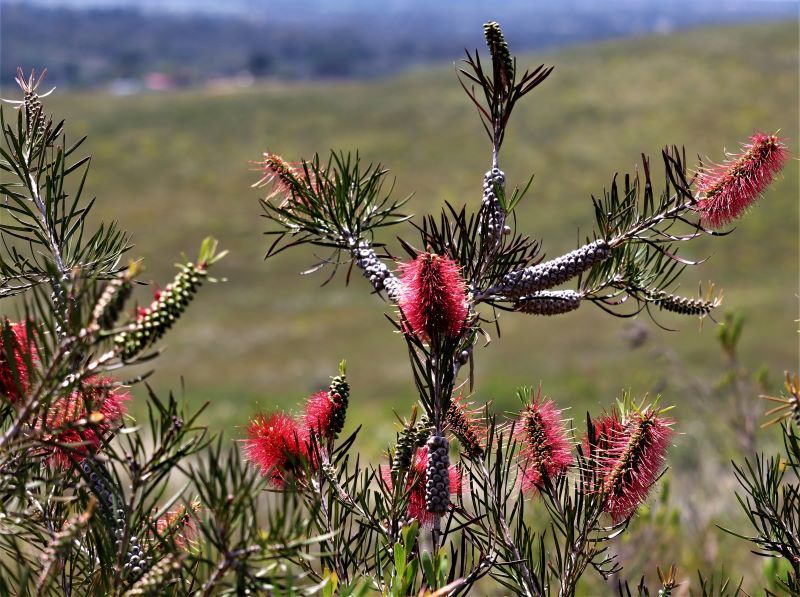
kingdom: Plantae
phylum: Tracheophyta
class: Magnoliopsida
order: Myrtales
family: Myrtaceae
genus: Callistemon
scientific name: Callistemon linearis
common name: Narrow-leaf bottlebrush
